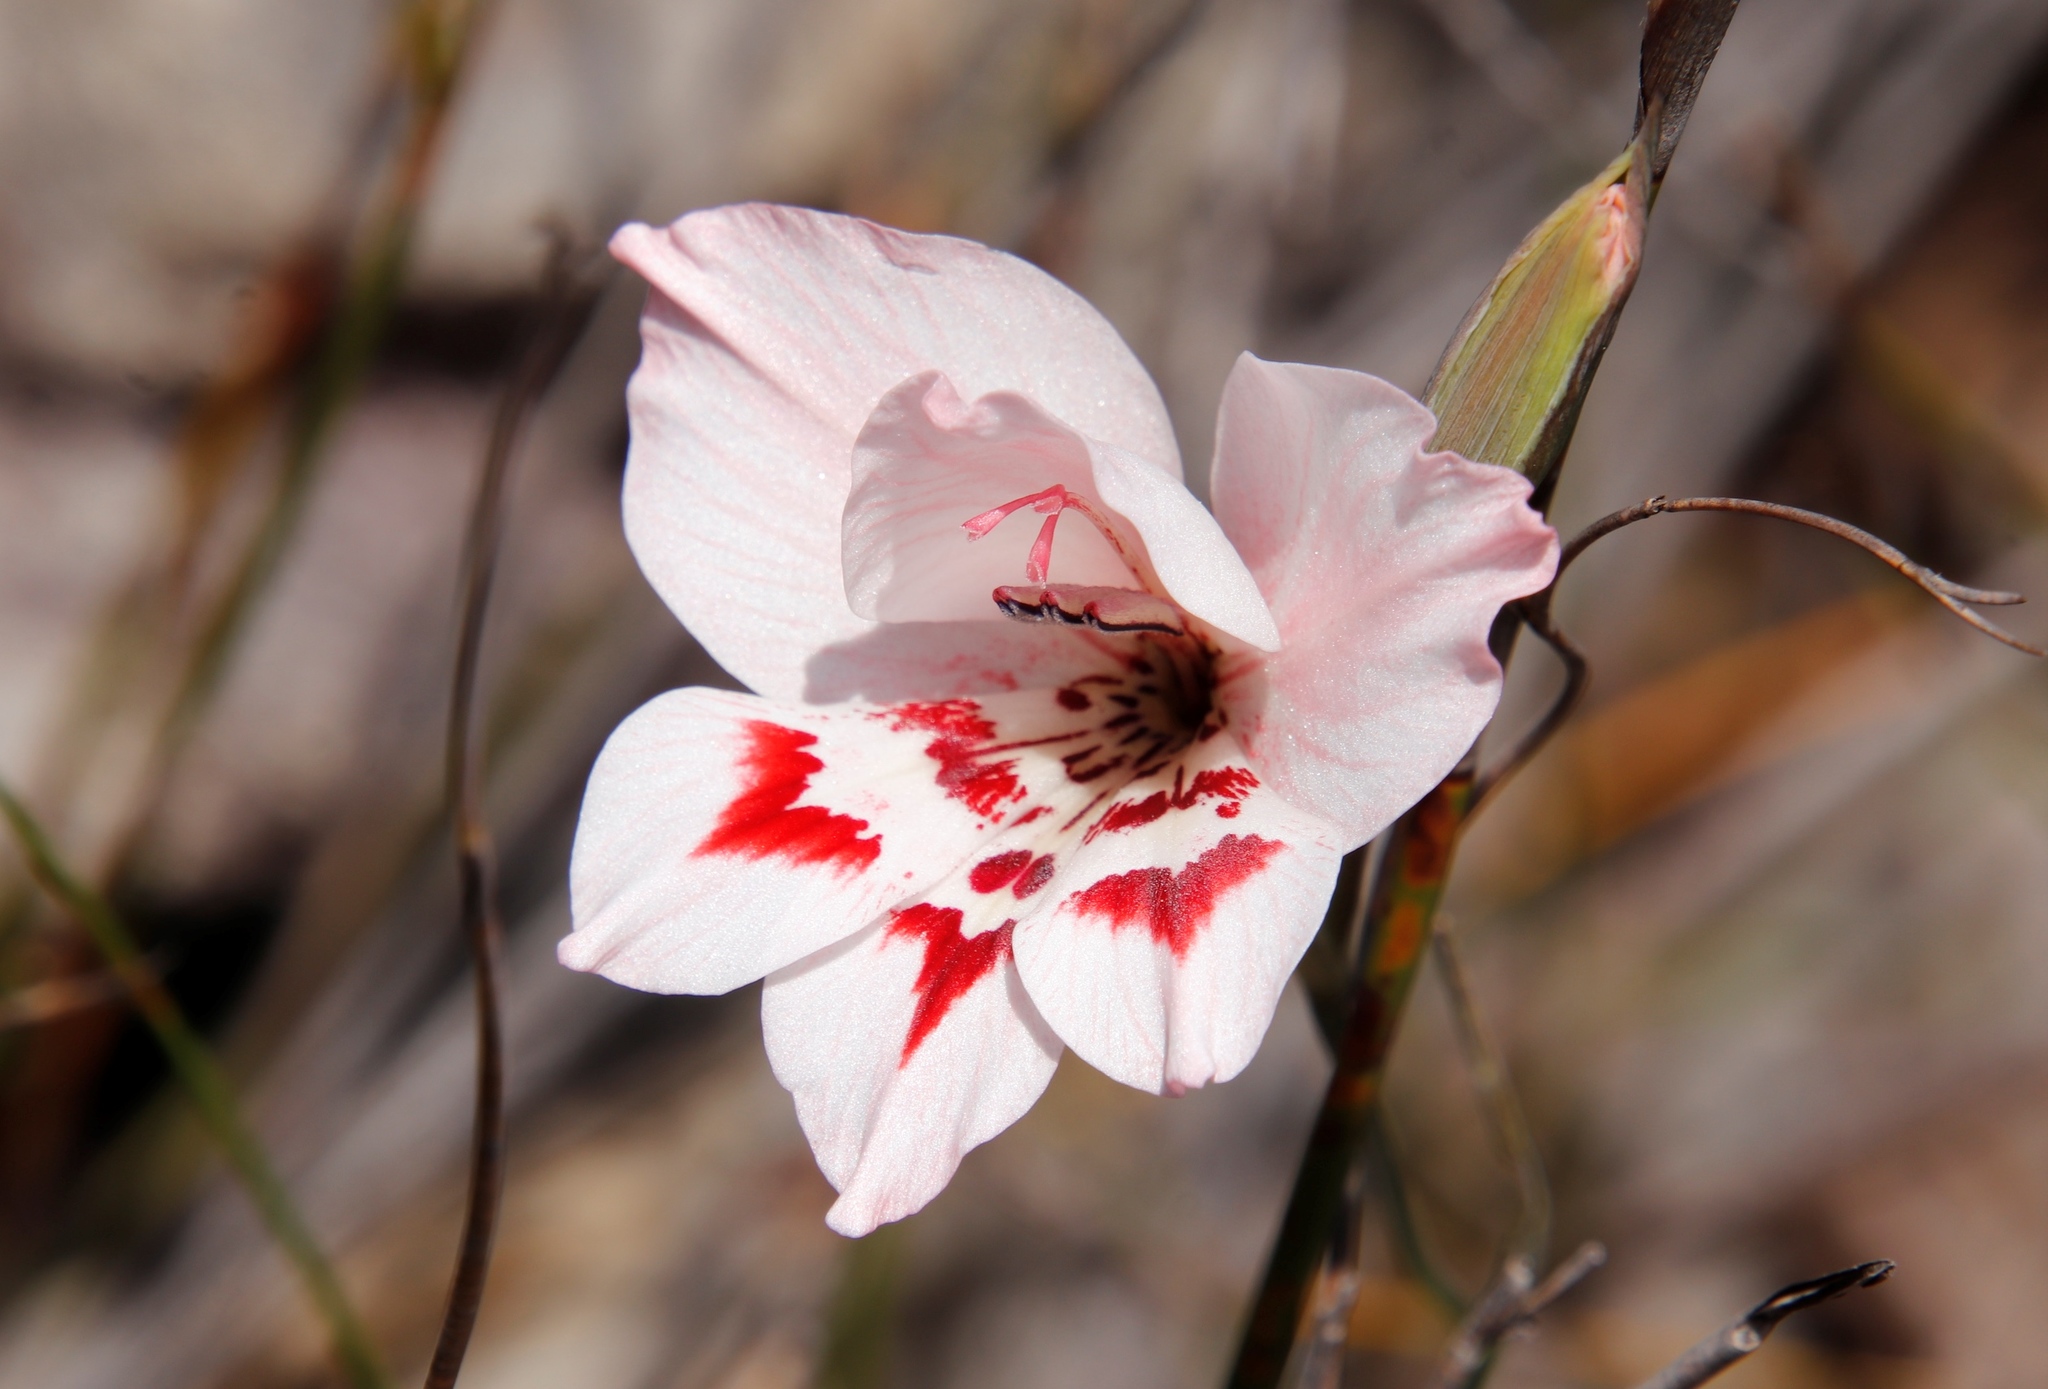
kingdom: Plantae
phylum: Tracheophyta
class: Liliopsida
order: Asparagales
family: Iridaceae
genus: Gladiolus
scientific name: Gladiolus debilis
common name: Painted-lady
